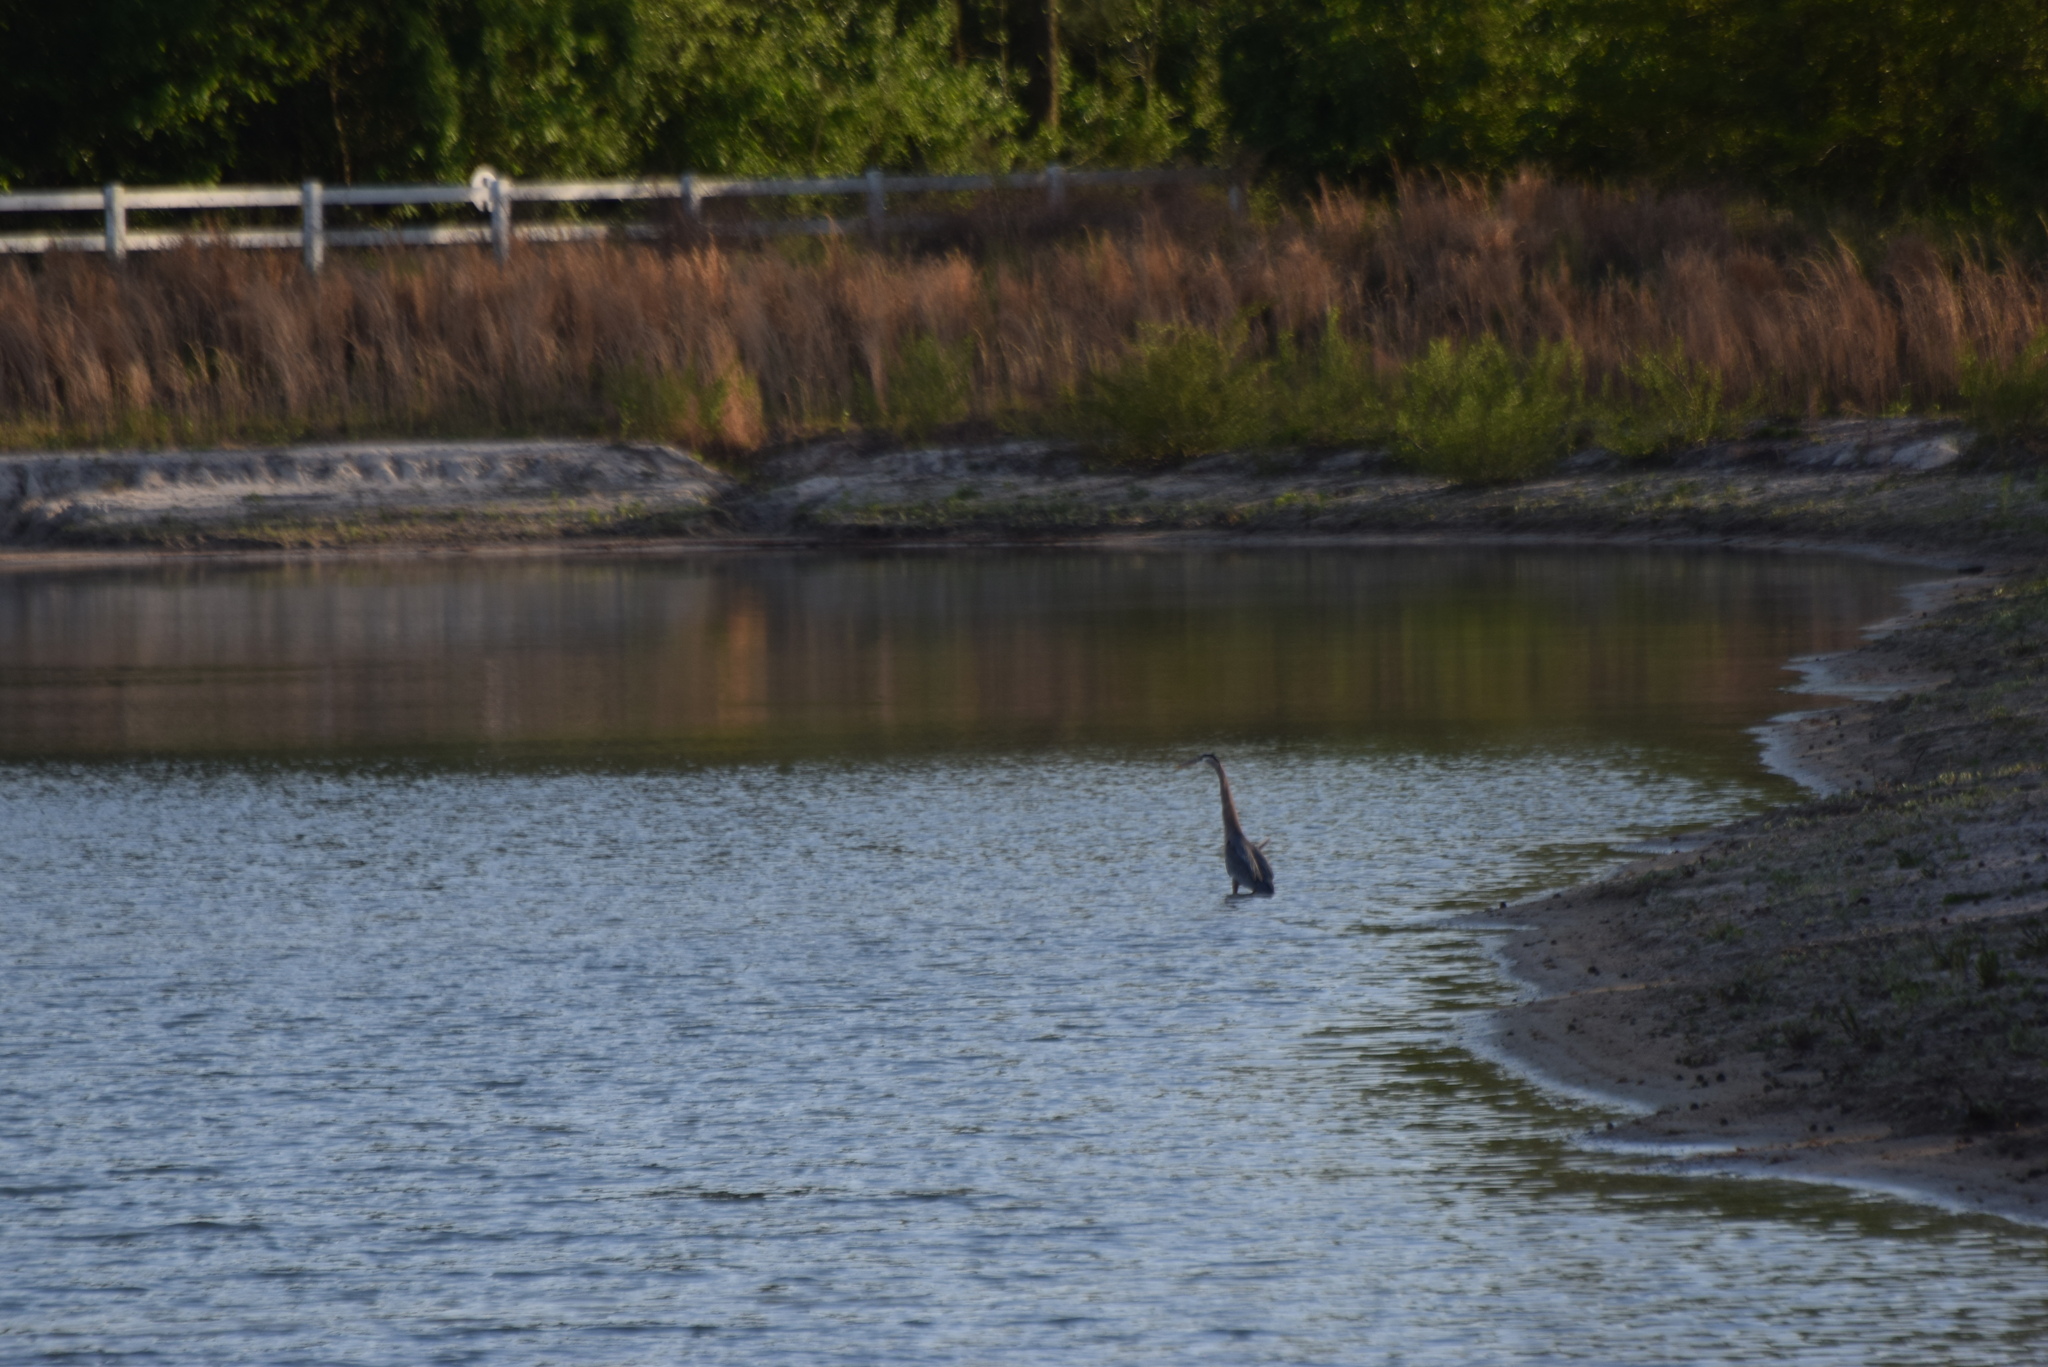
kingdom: Animalia
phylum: Chordata
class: Aves
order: Pelecaniformes
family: Ardeidae
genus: Ardea
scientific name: Ardea herodias
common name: Great blue heron
